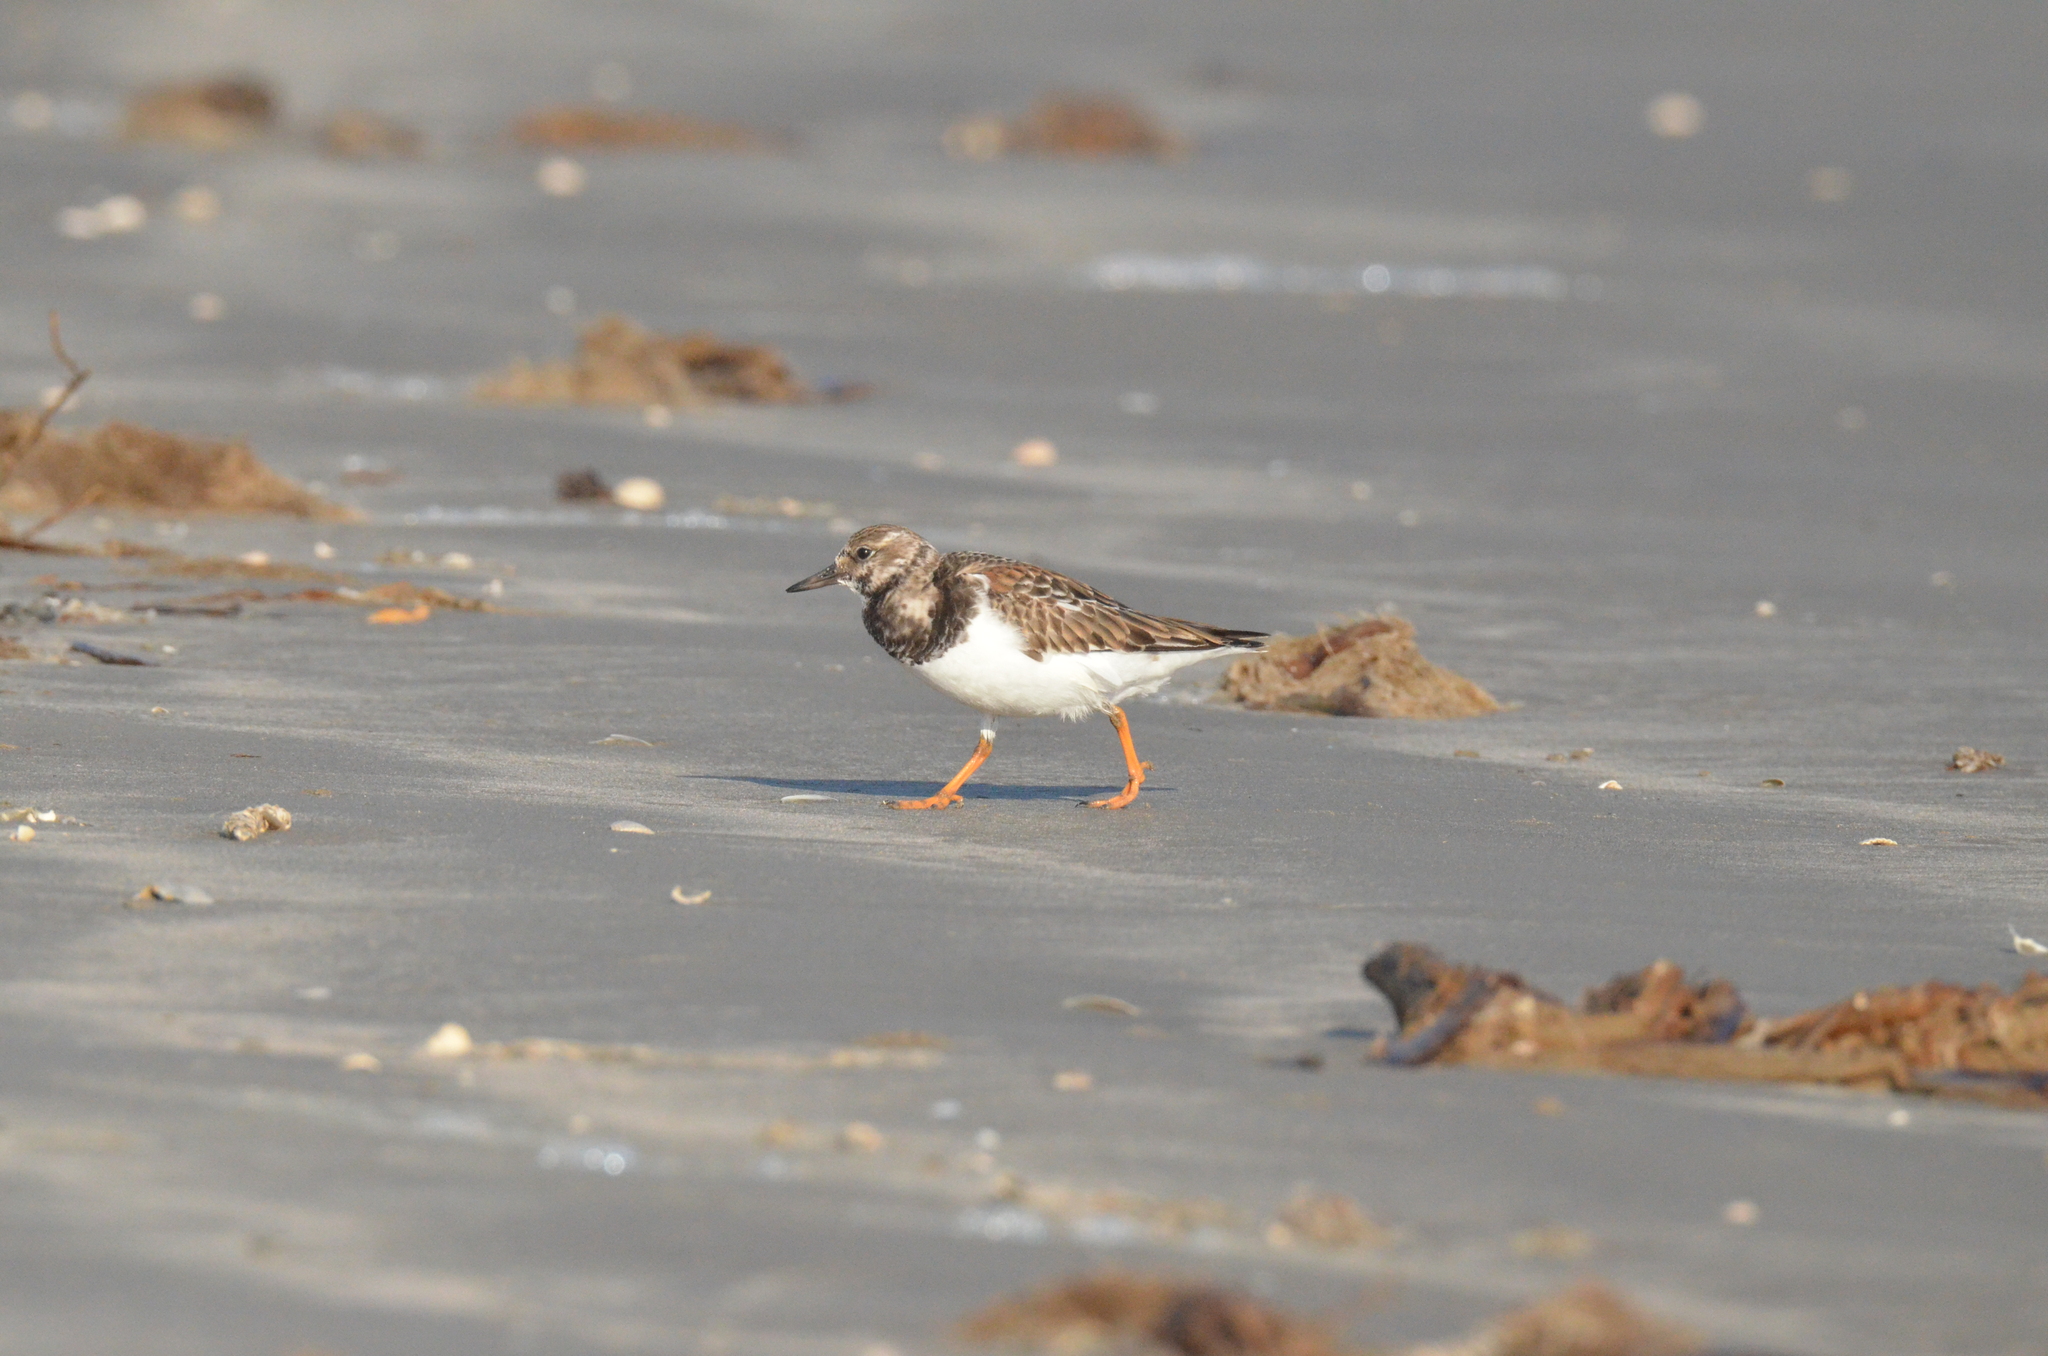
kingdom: Animalia
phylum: Chordata
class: Aves
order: Charadriiformes
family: Scolopacidae
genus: Arenaria
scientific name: Arenaria interpres
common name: Ruddy turnstone
